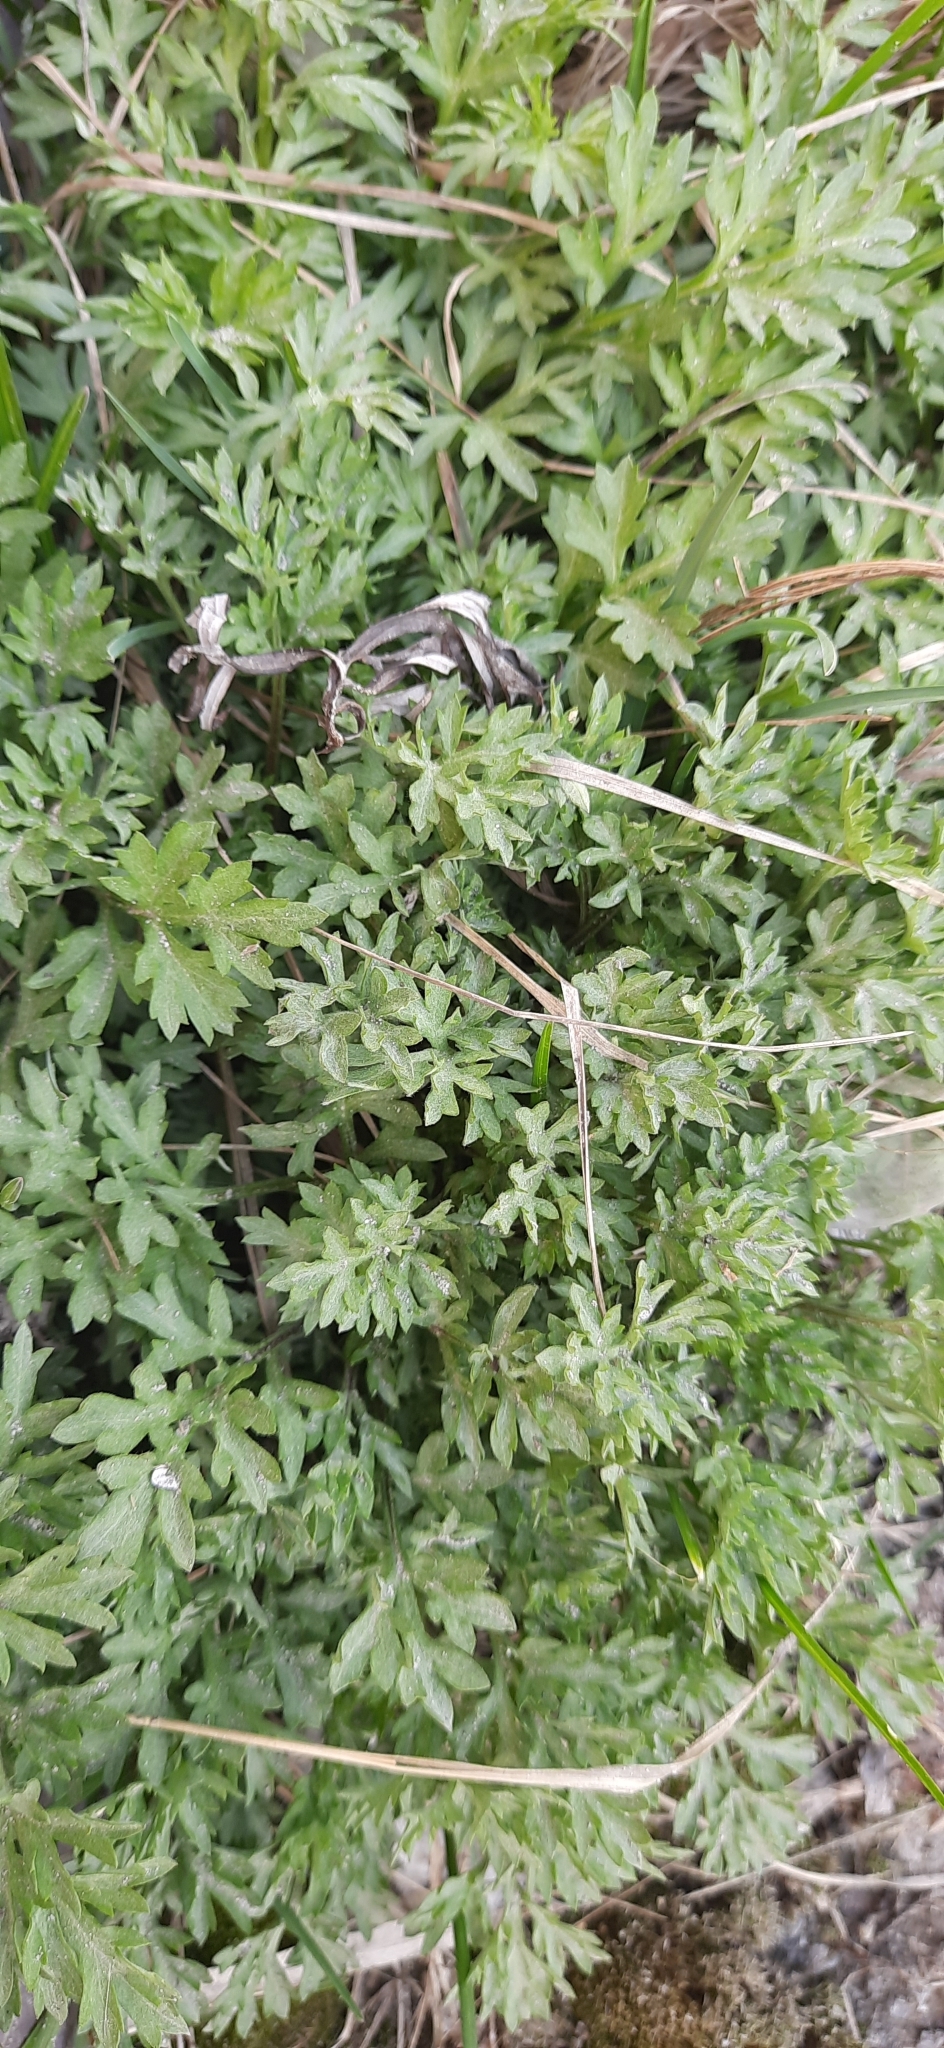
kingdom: Plantae
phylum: Tracheophyta
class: Magnoliopsida
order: Asterales
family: Asteraceae
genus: Artemisia
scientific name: Artemisia vulgaris
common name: Mugwort
